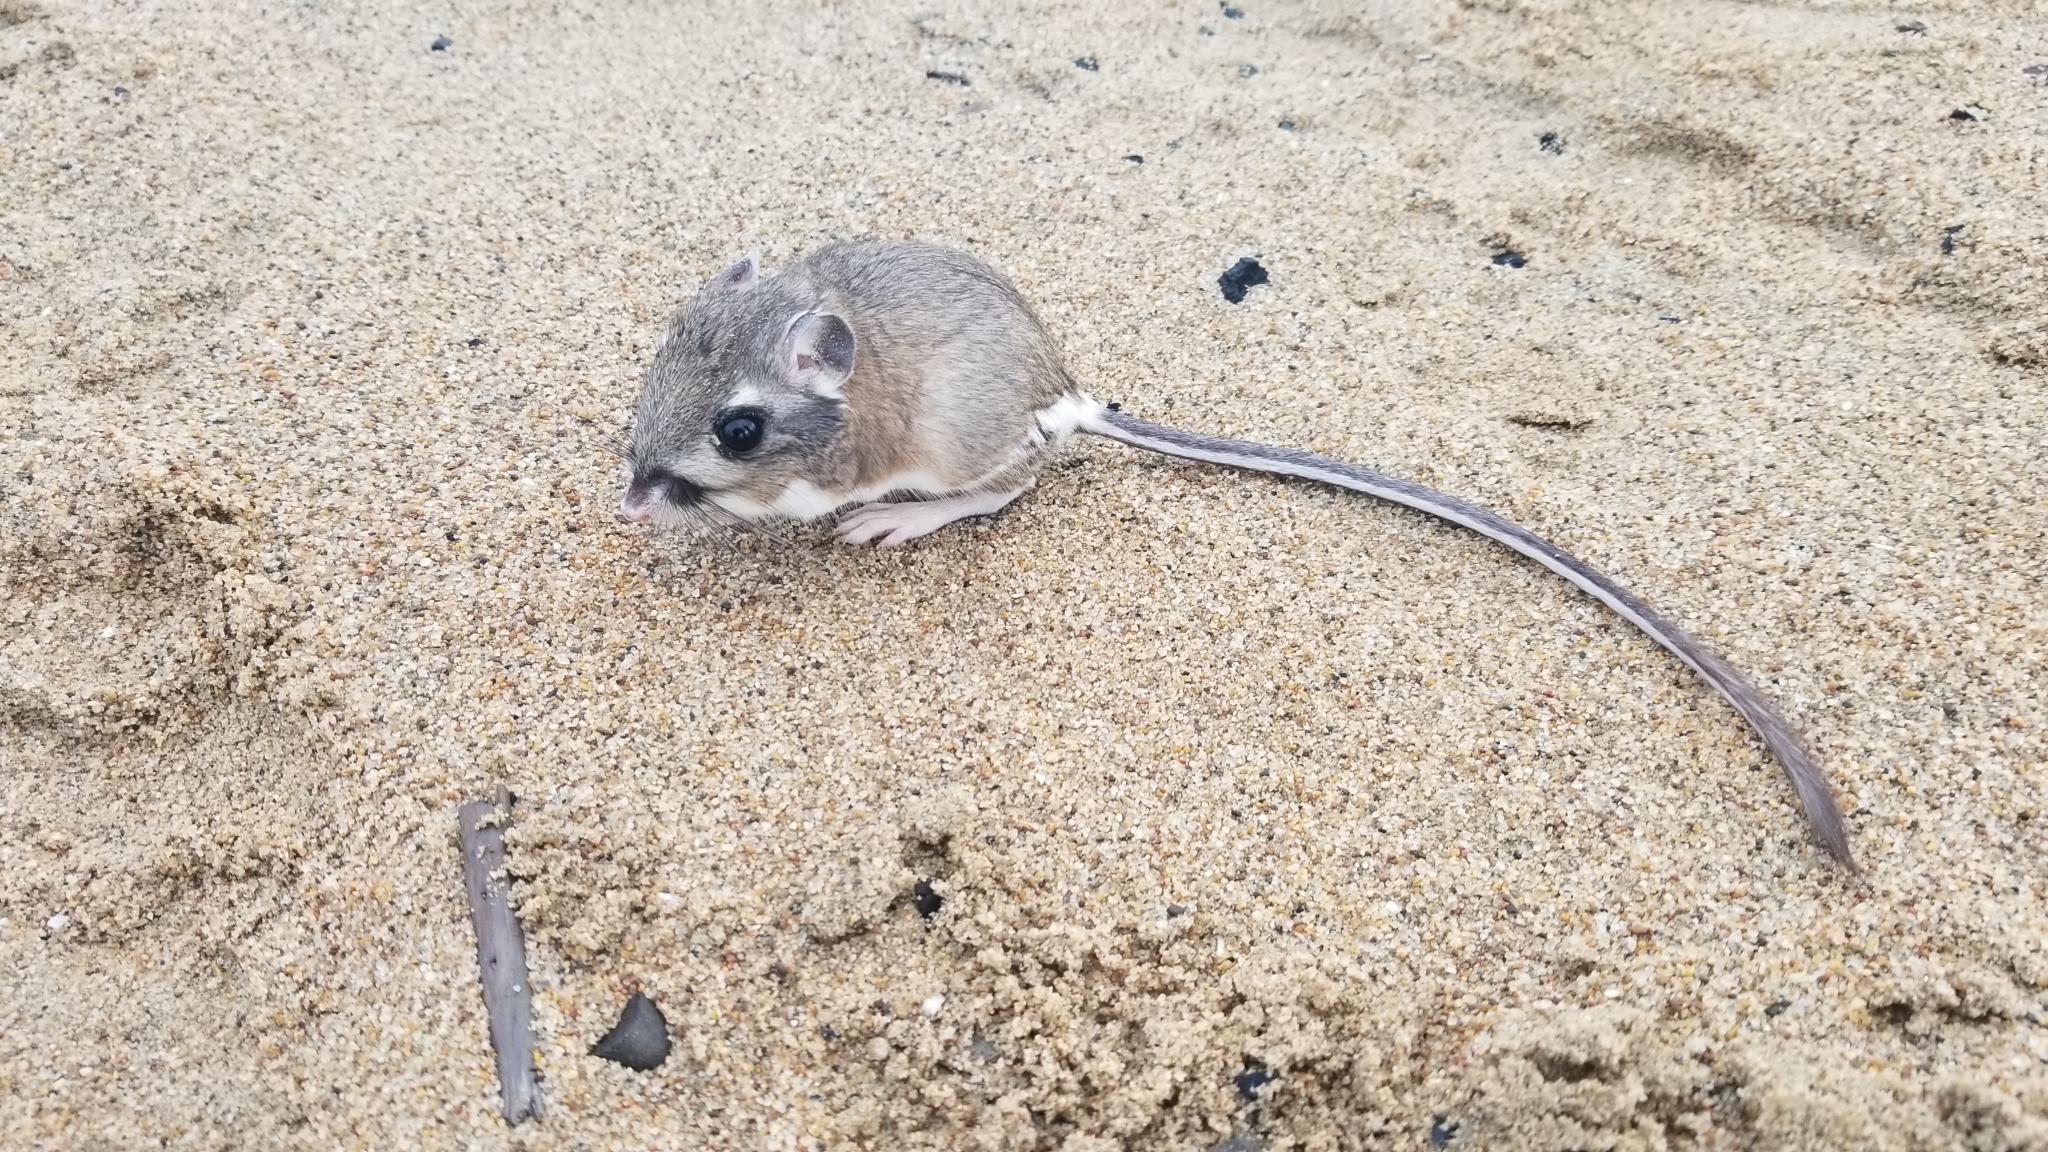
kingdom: Animalia
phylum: Chordata
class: Mammalia
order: Rodentia
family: Heteromyidae
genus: Dipodomys
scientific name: Dipodomys heermanni
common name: Heermann's kangaroo rat
